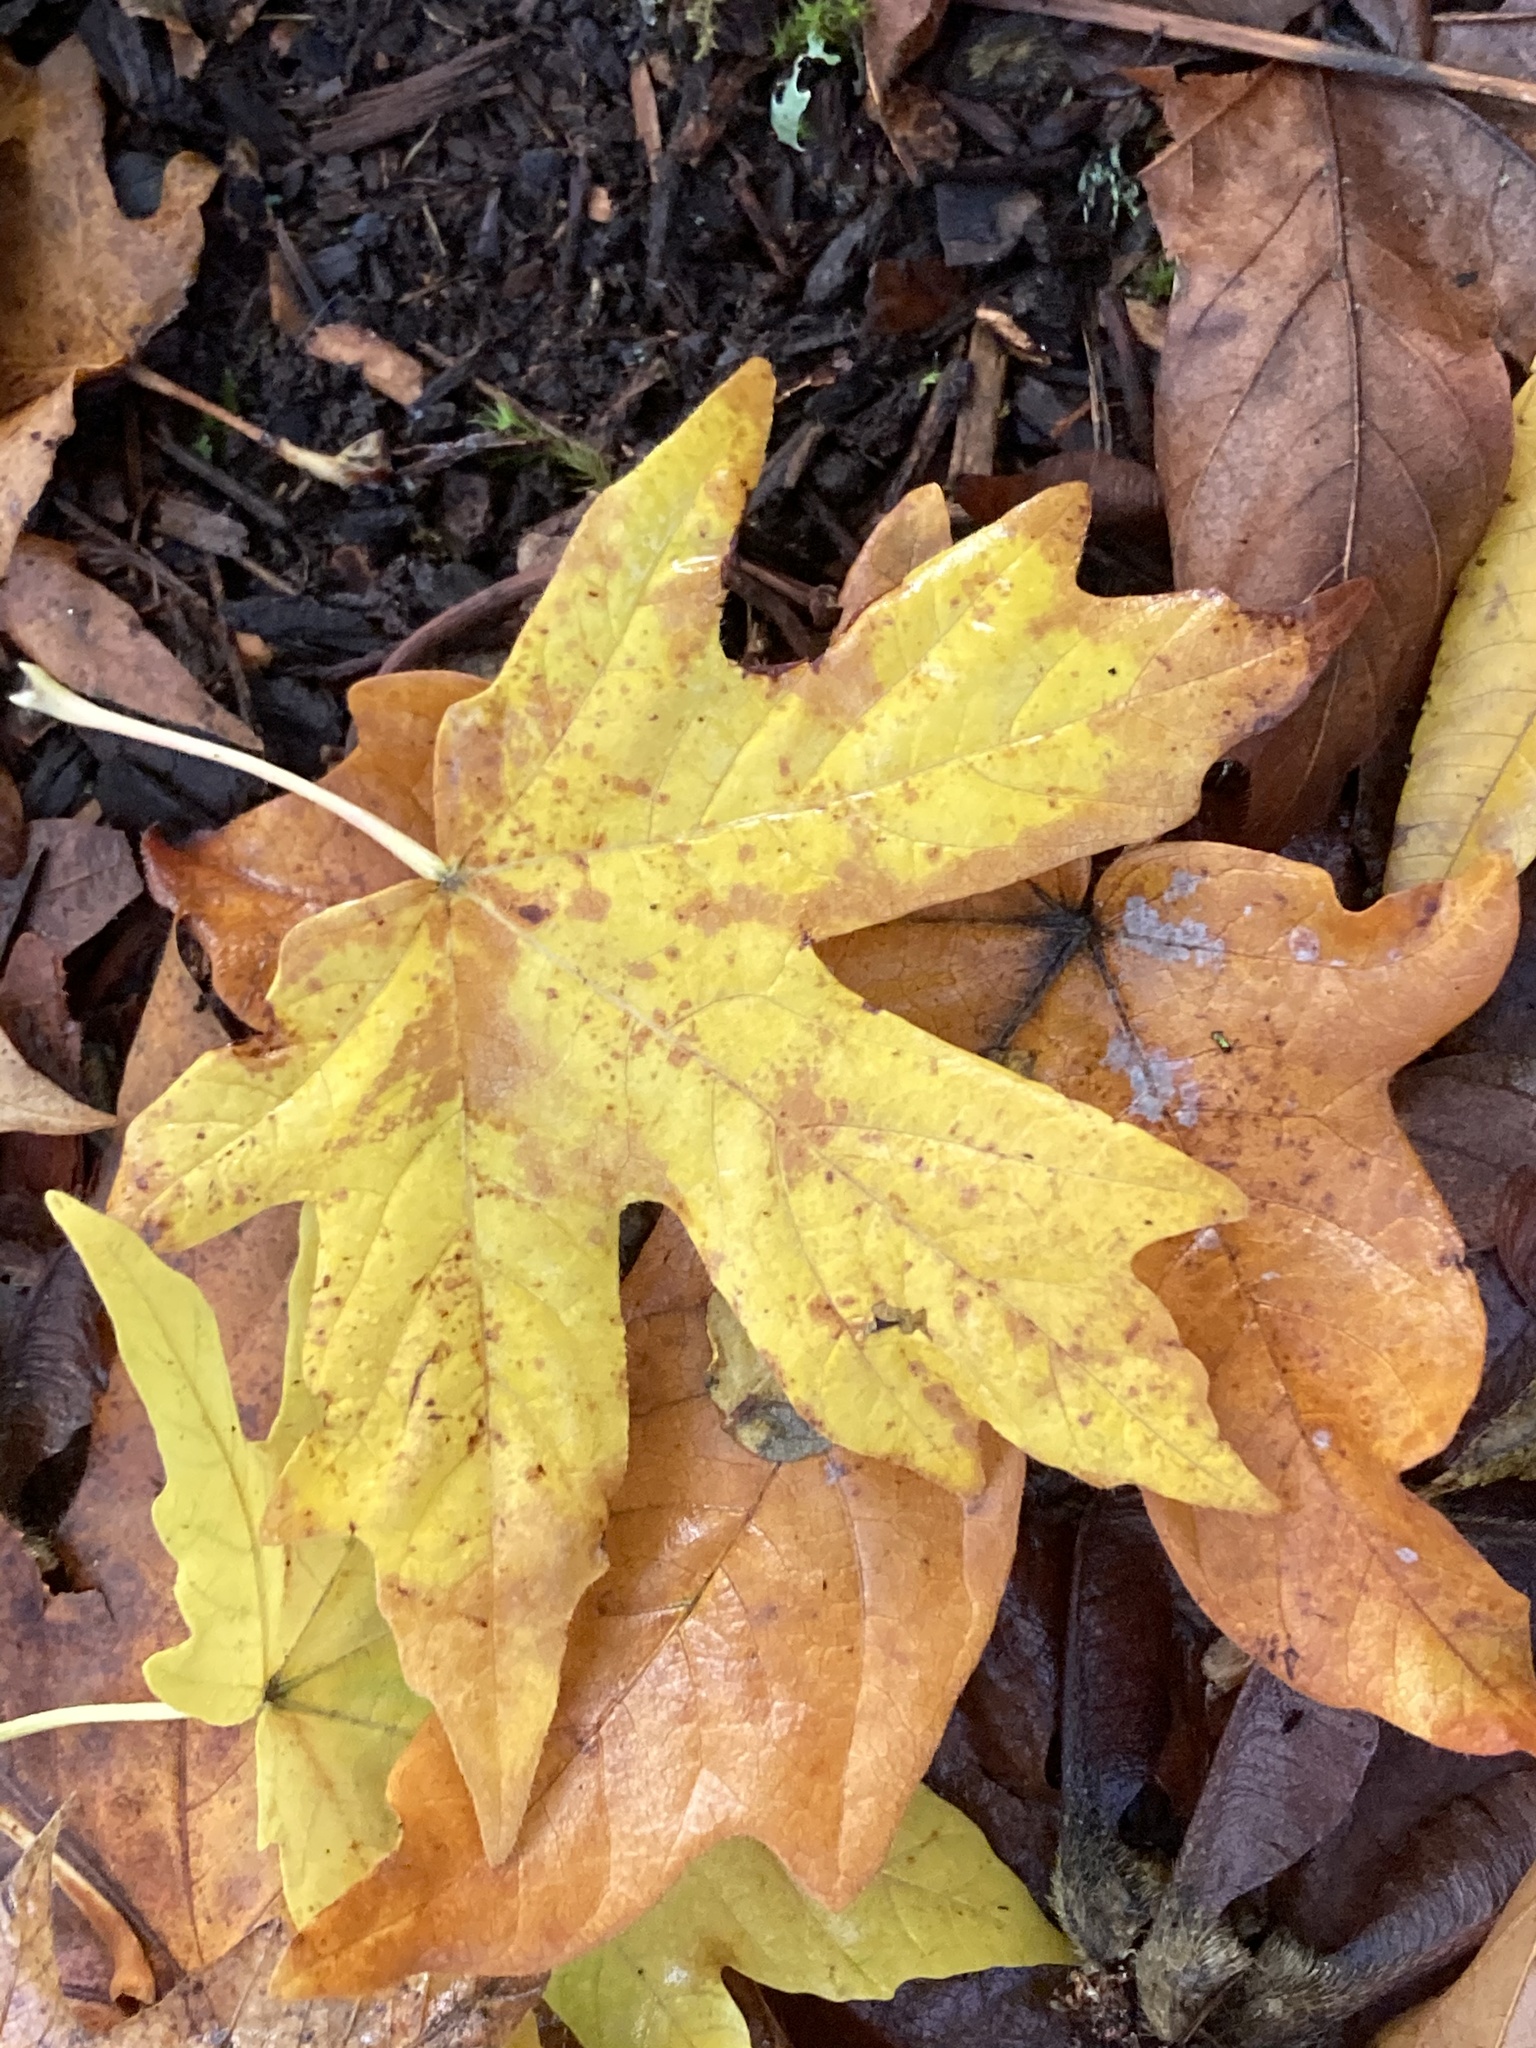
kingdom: Plantae
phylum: Tracheophyta
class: Magnoliopsida
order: Sapindales
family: Sapindaceae
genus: Acer
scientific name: Acer macrophyllum
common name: Oregon maple
